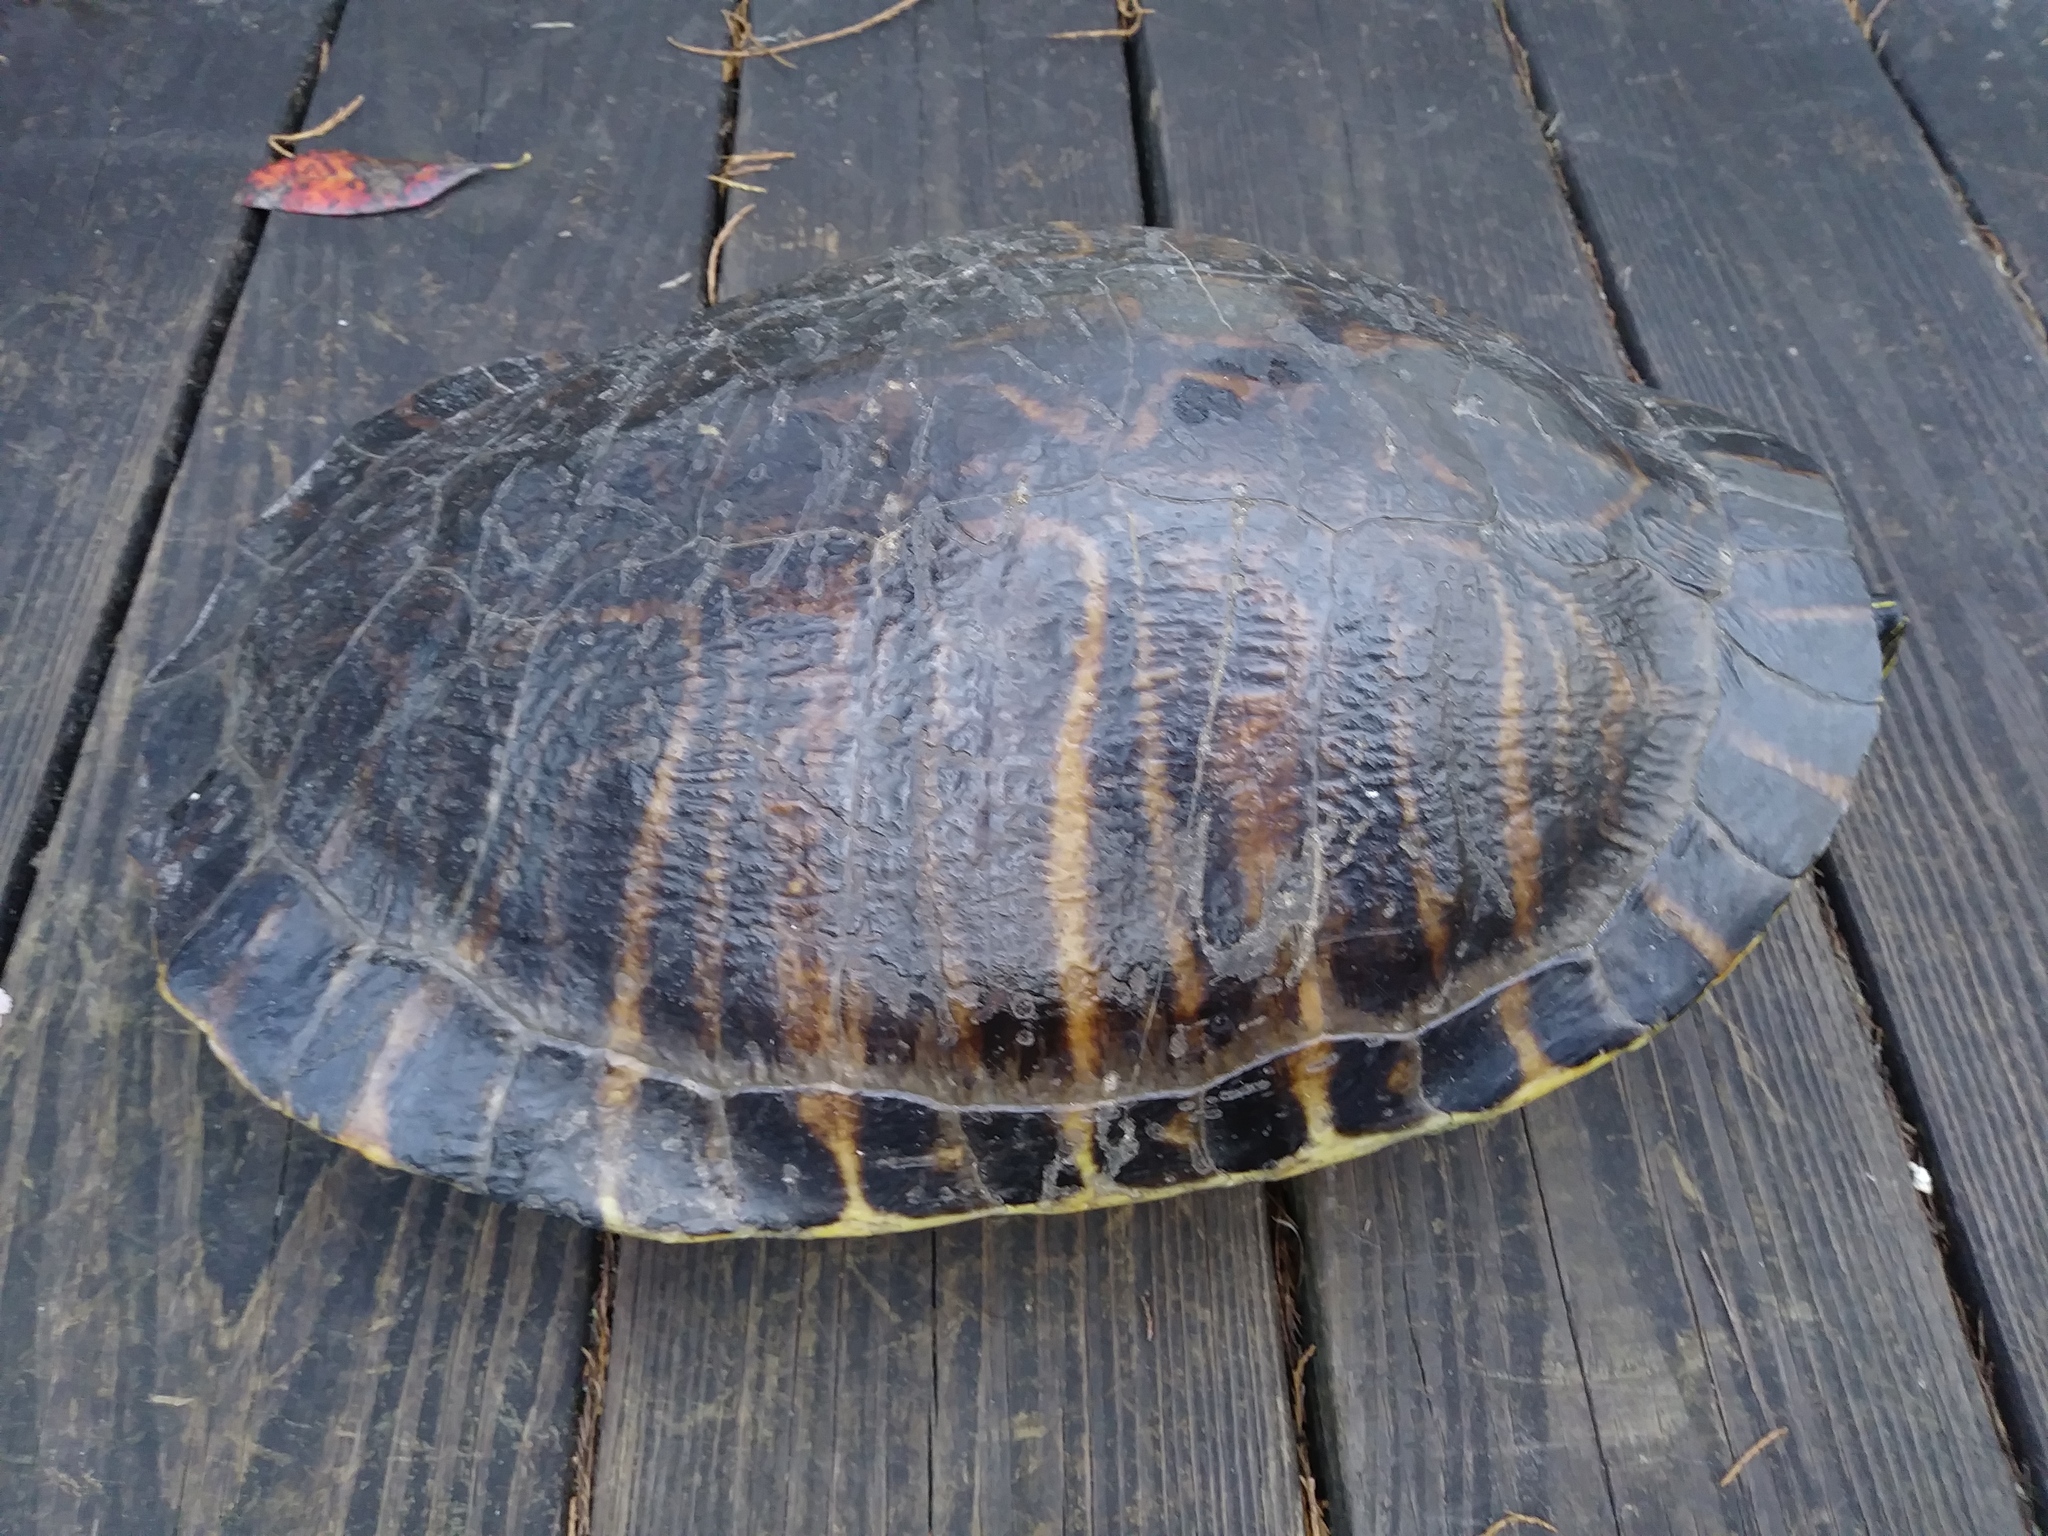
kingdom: Animalia
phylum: Chordata
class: Testudines
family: Emydidae
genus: Pseudemys
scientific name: Pseudemys peninsularis
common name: Peninsula cooter
